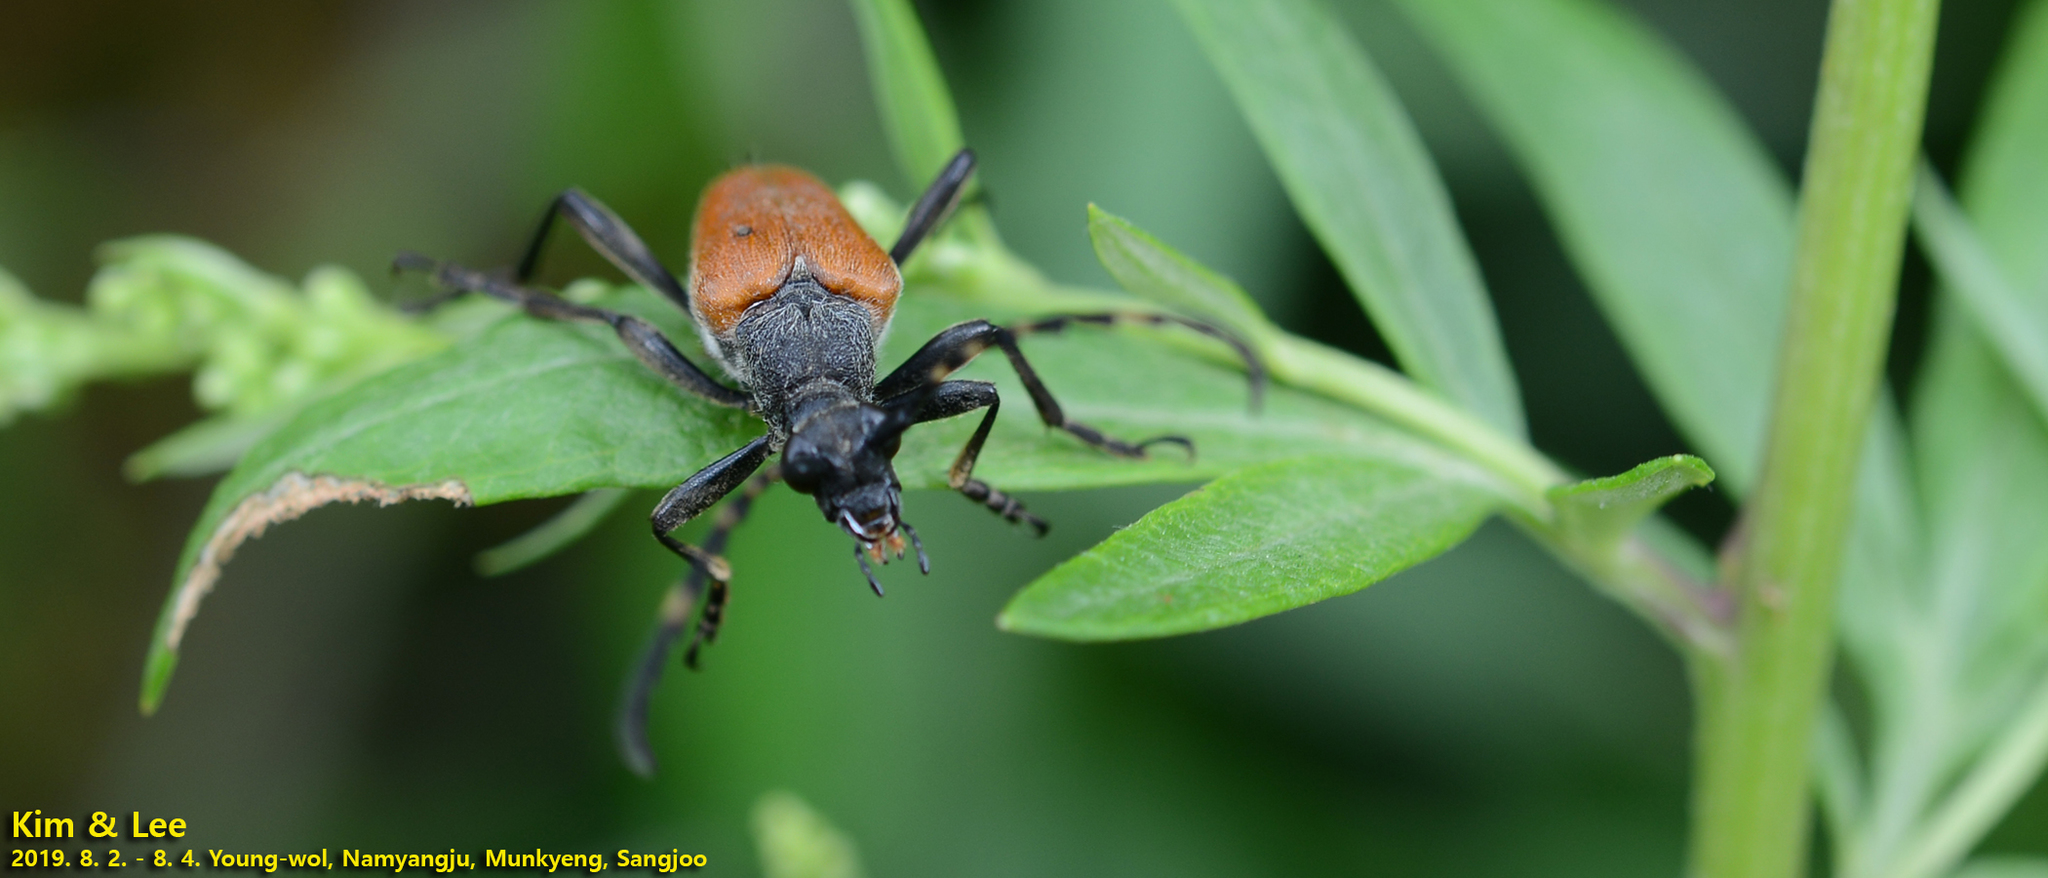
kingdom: Animalia
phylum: Arthropoda
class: Insecta
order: Coleoptera
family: Cerambycidae
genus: Stictoleptura
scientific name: Stictoleptura variicornis
